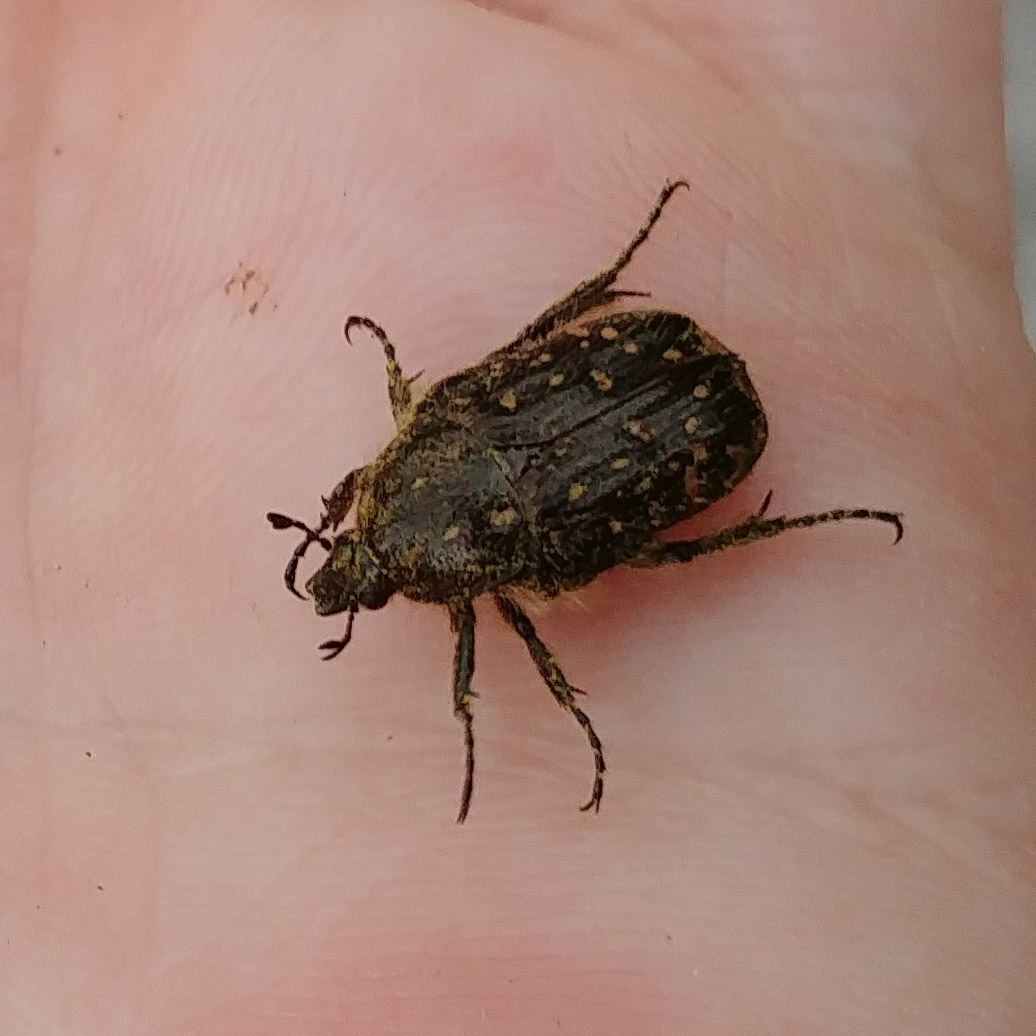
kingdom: Animalia
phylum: Arthropoda
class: Insecta
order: Coleoptera
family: Scarabaeidae
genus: Oxythyrea
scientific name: Oxythyrea funesta
